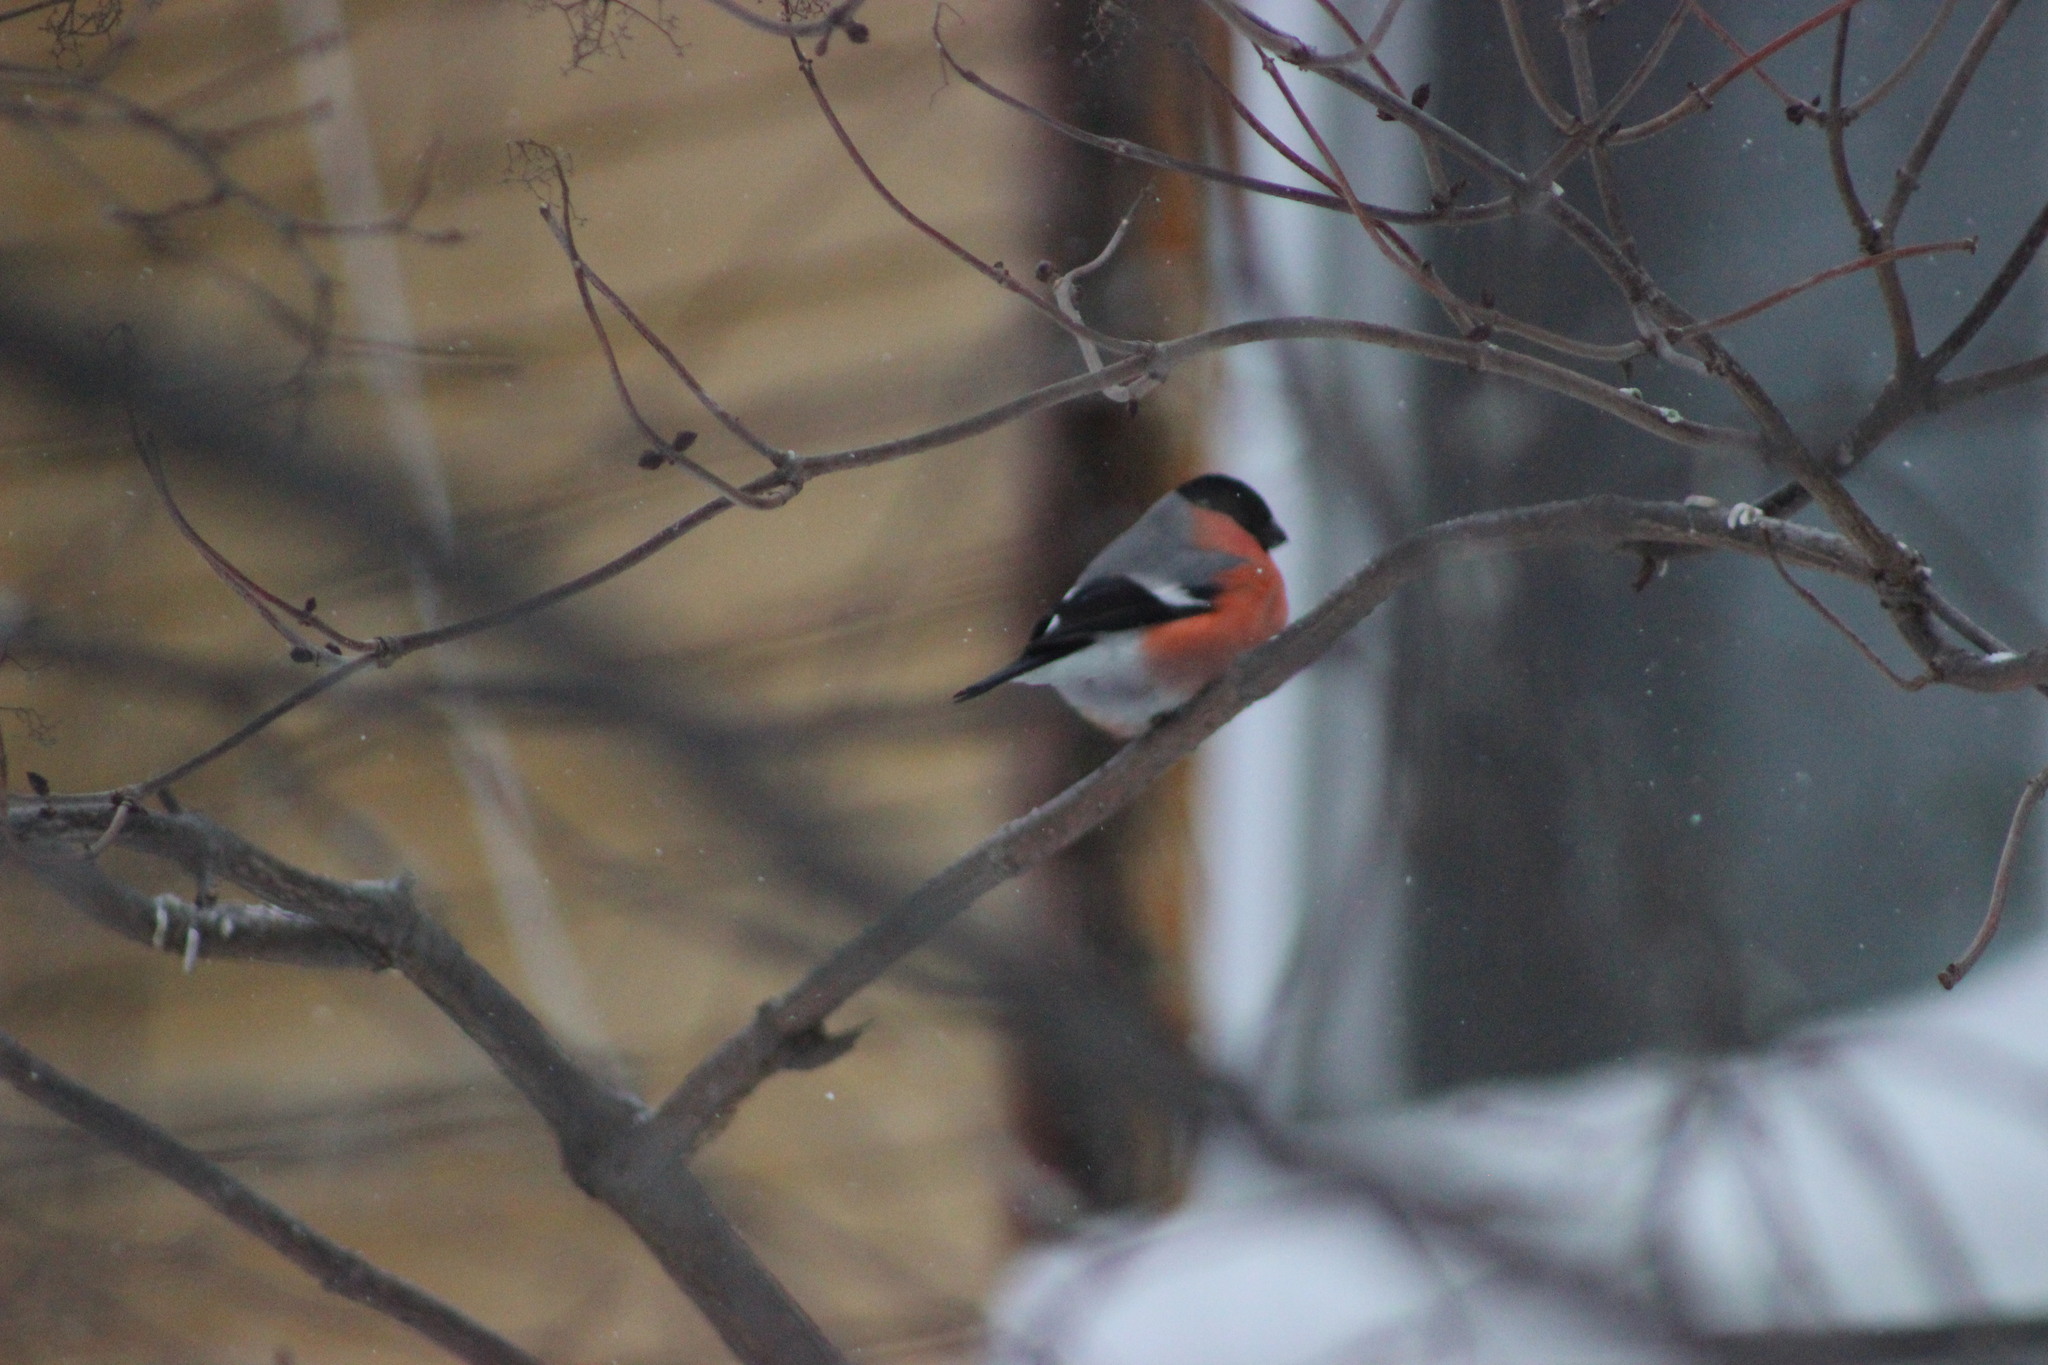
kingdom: Animalia
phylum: Chordata
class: Aves
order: Passeriformes
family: Fringillidae
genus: Pyrrhula
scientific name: Pyrrhula pyrrhula
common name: Eurasian bullfinch
